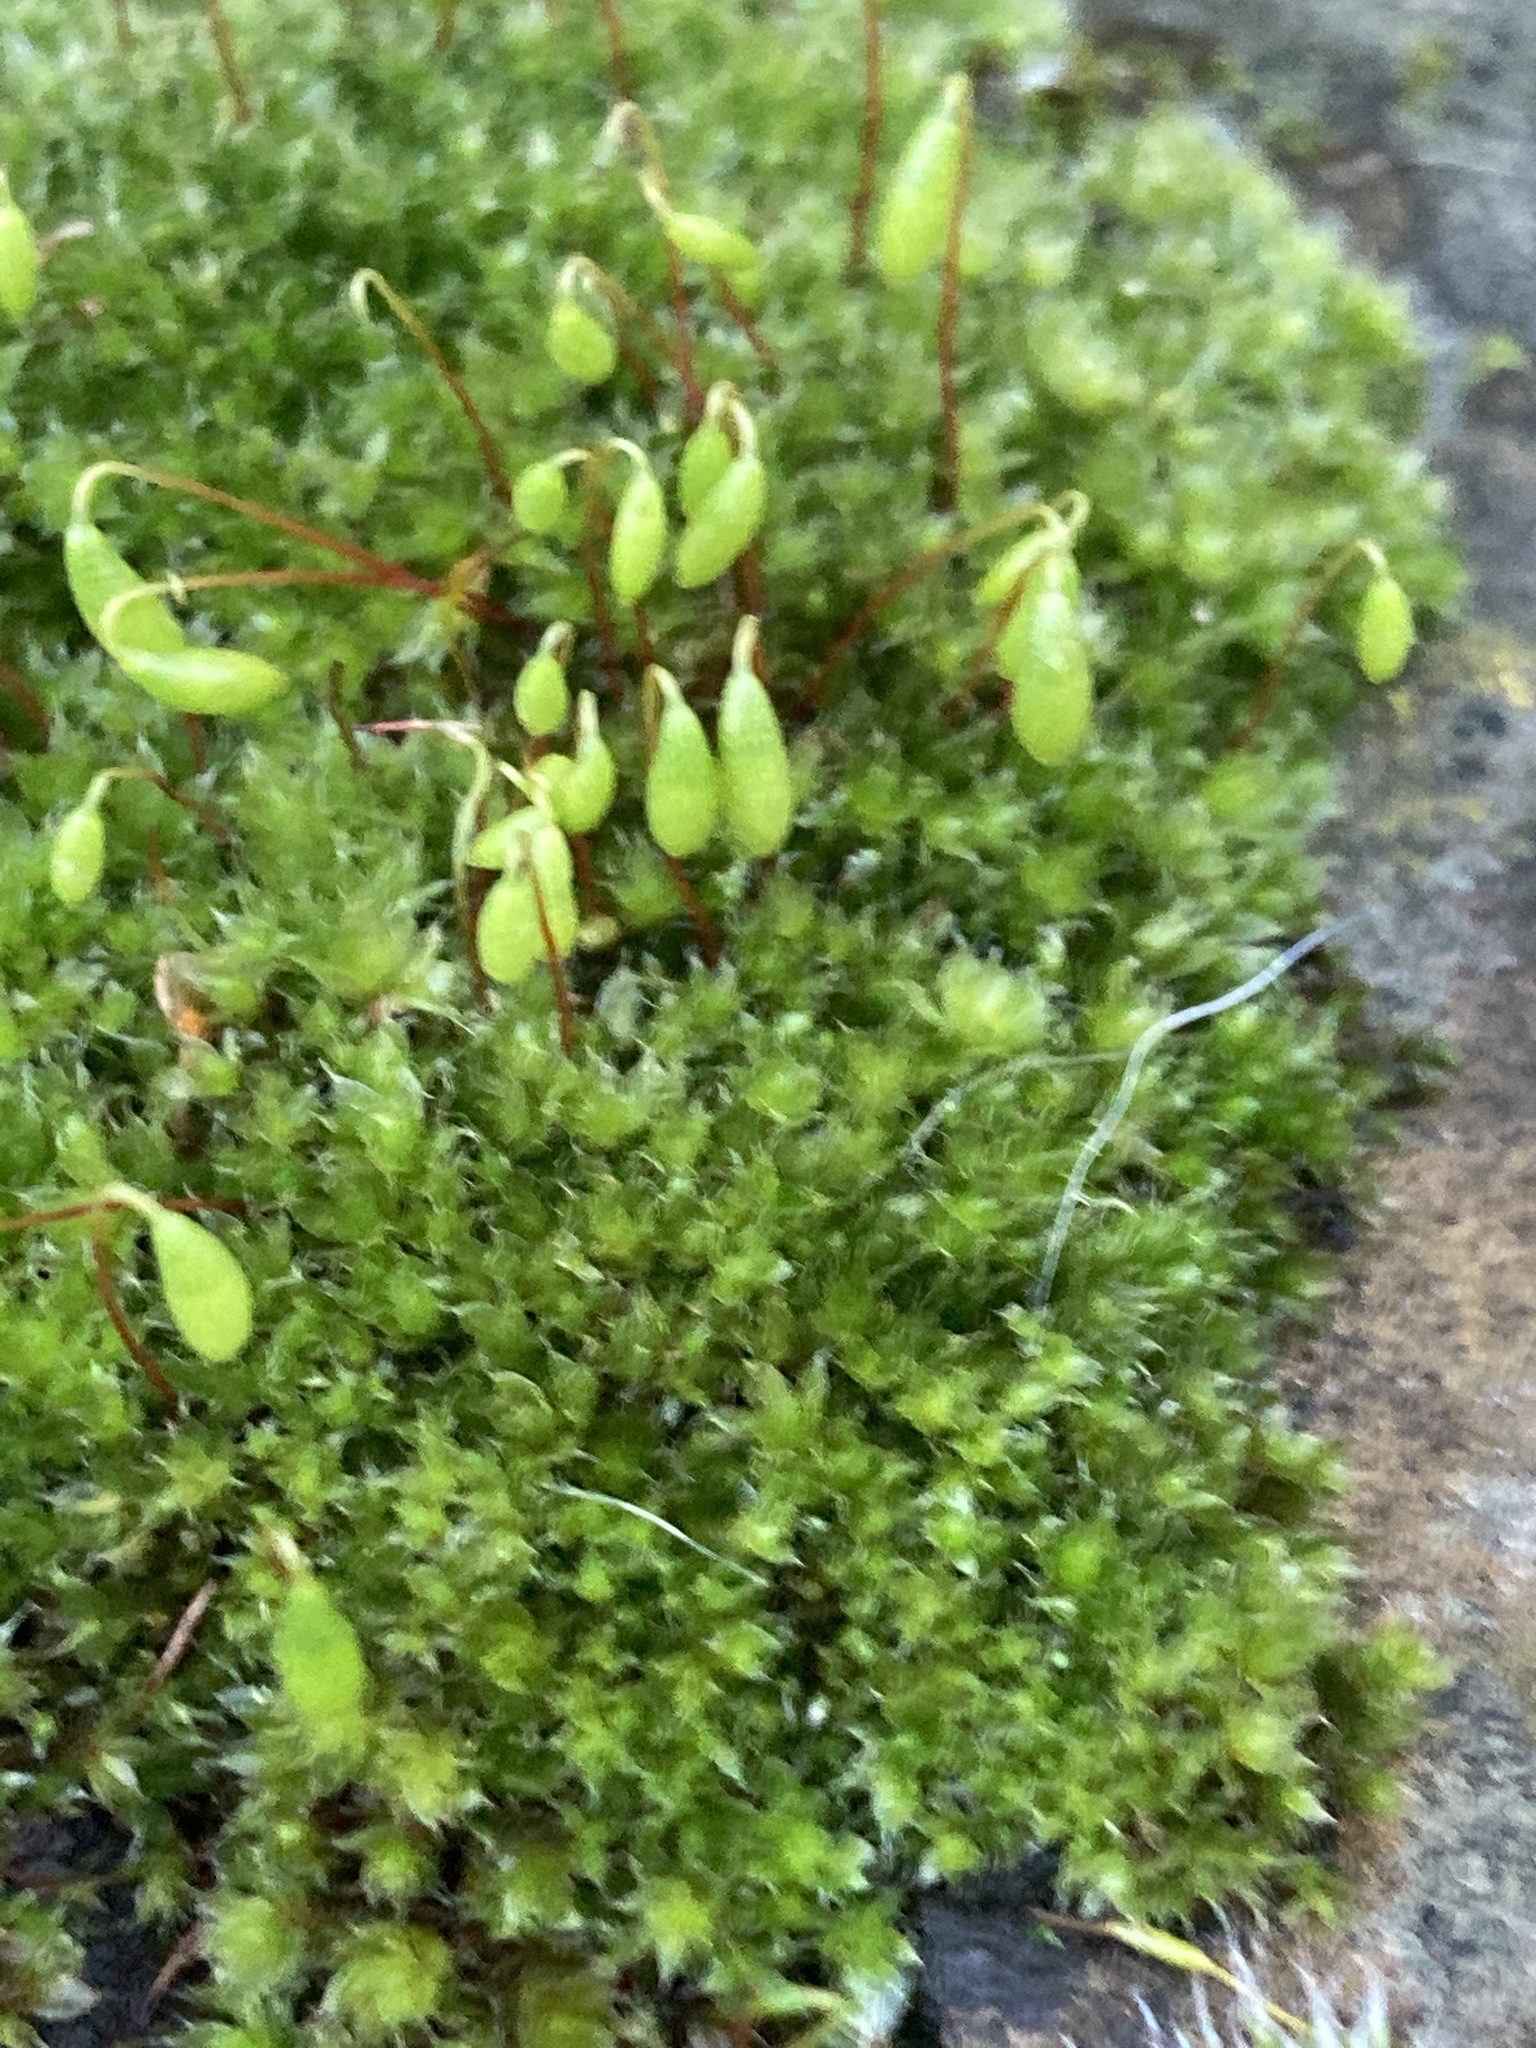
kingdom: Plantae
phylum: Bryophyta
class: Bryopsida
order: Bryales
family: Bryaceae
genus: Rosulabryum
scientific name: Rosulabryum capillare
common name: Capillary thread-moss
